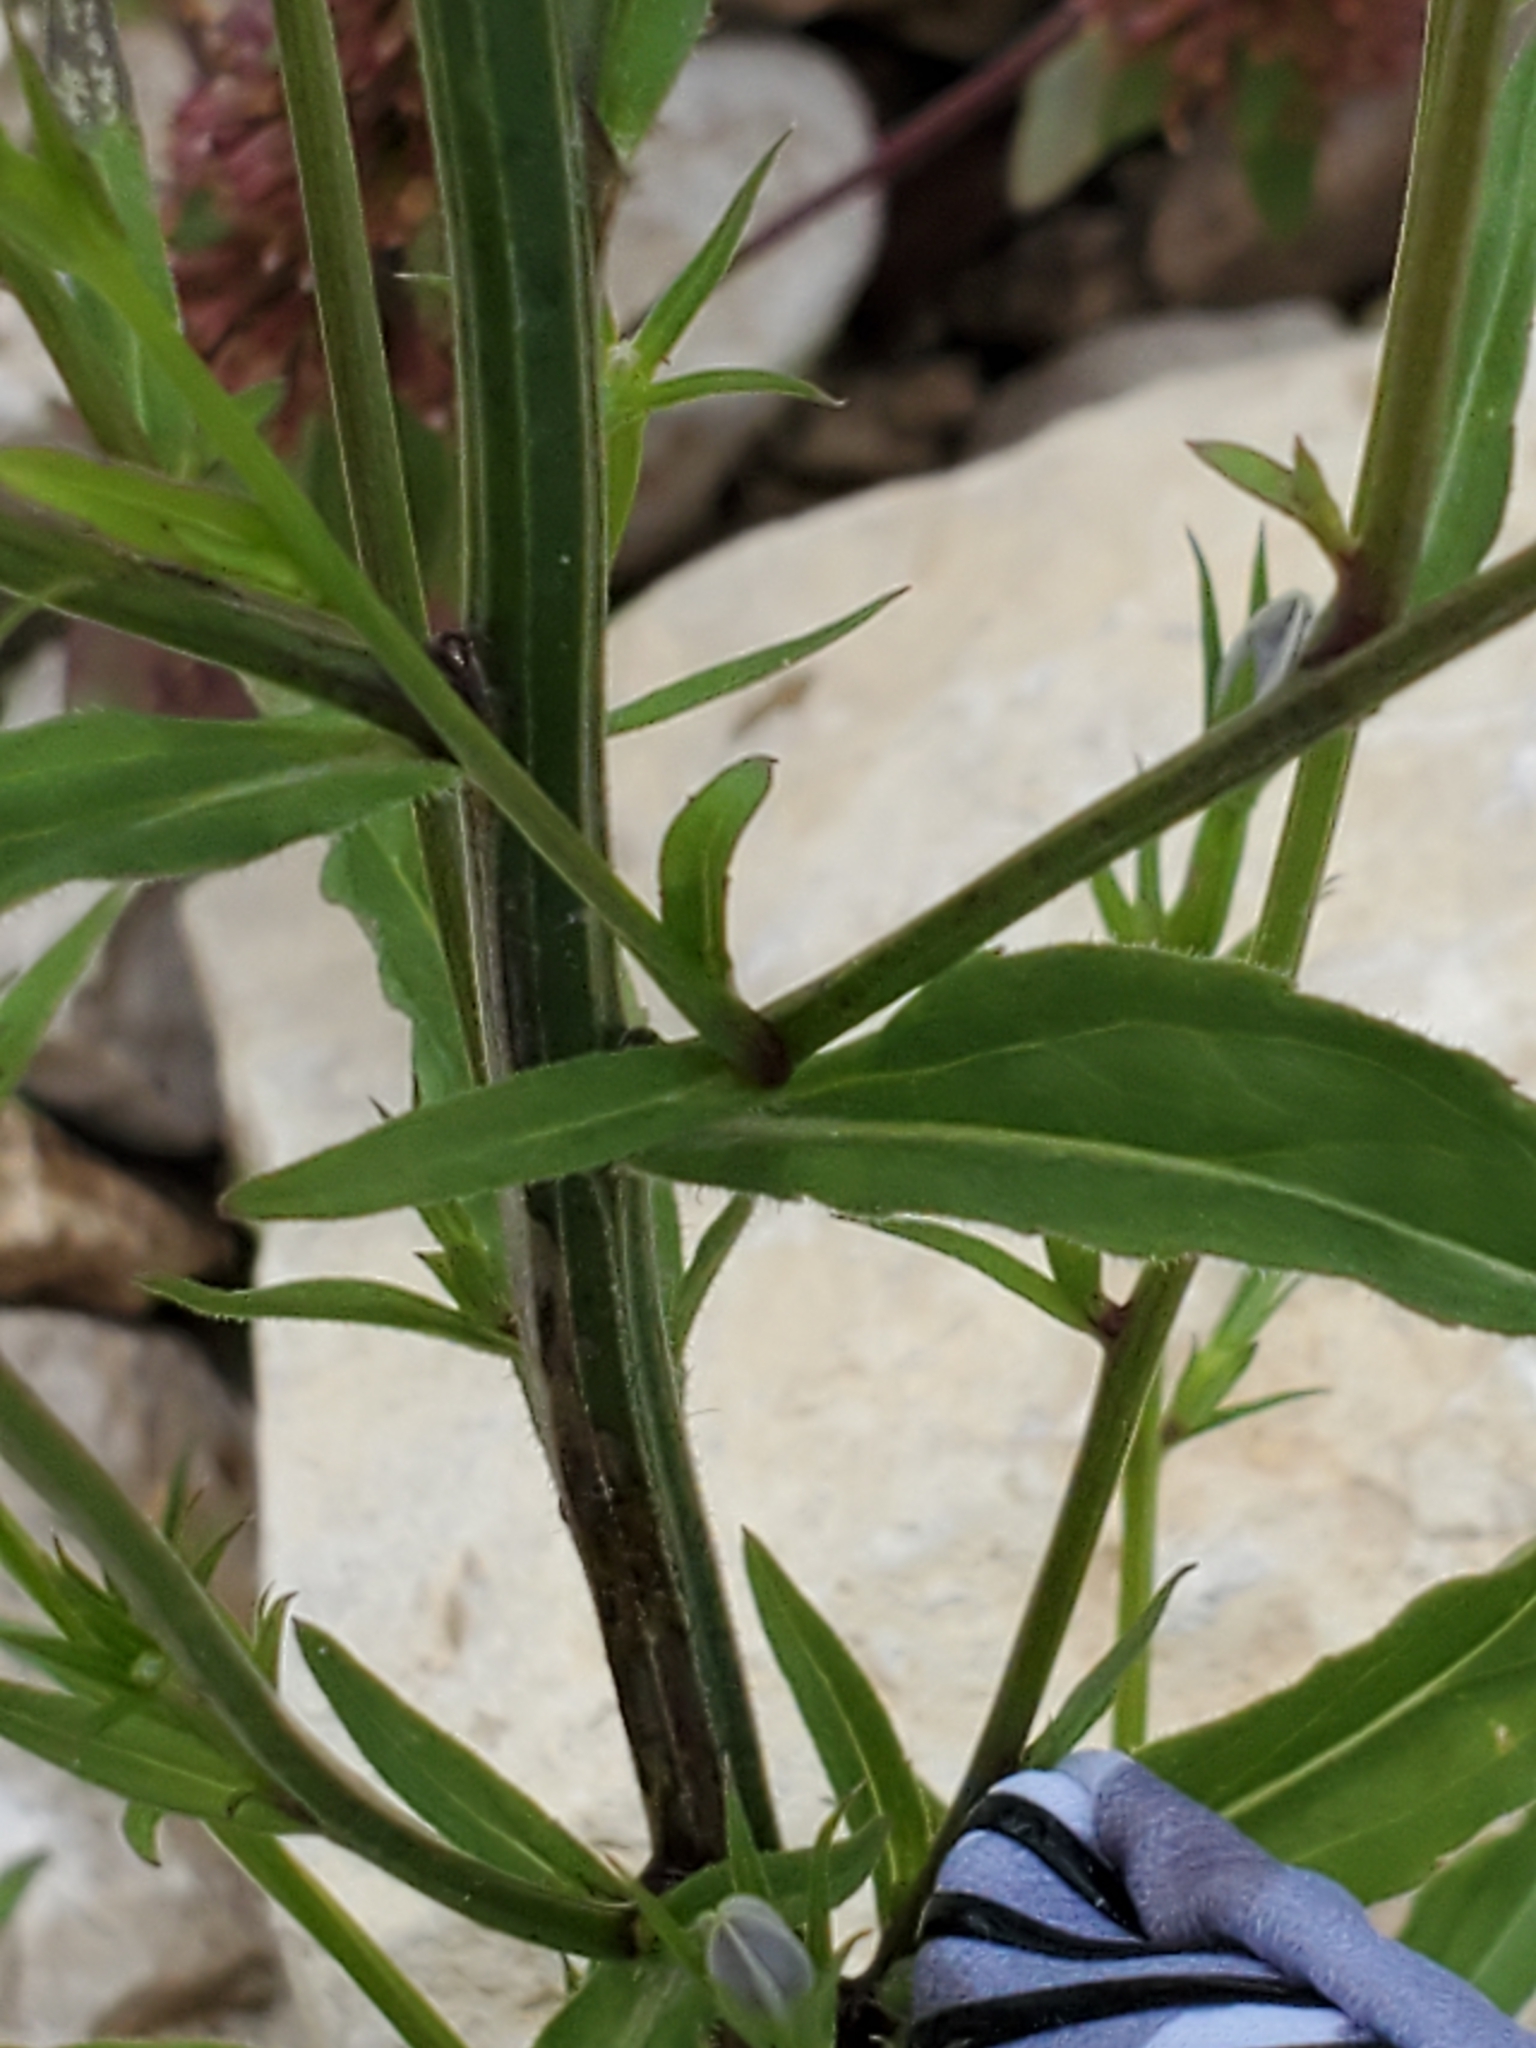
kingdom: Plantae
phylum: Tracheophyta
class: Magnoliopsida
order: Asterales
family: Campanulaceae
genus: Triodanis
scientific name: Triodanis coloradoensis
